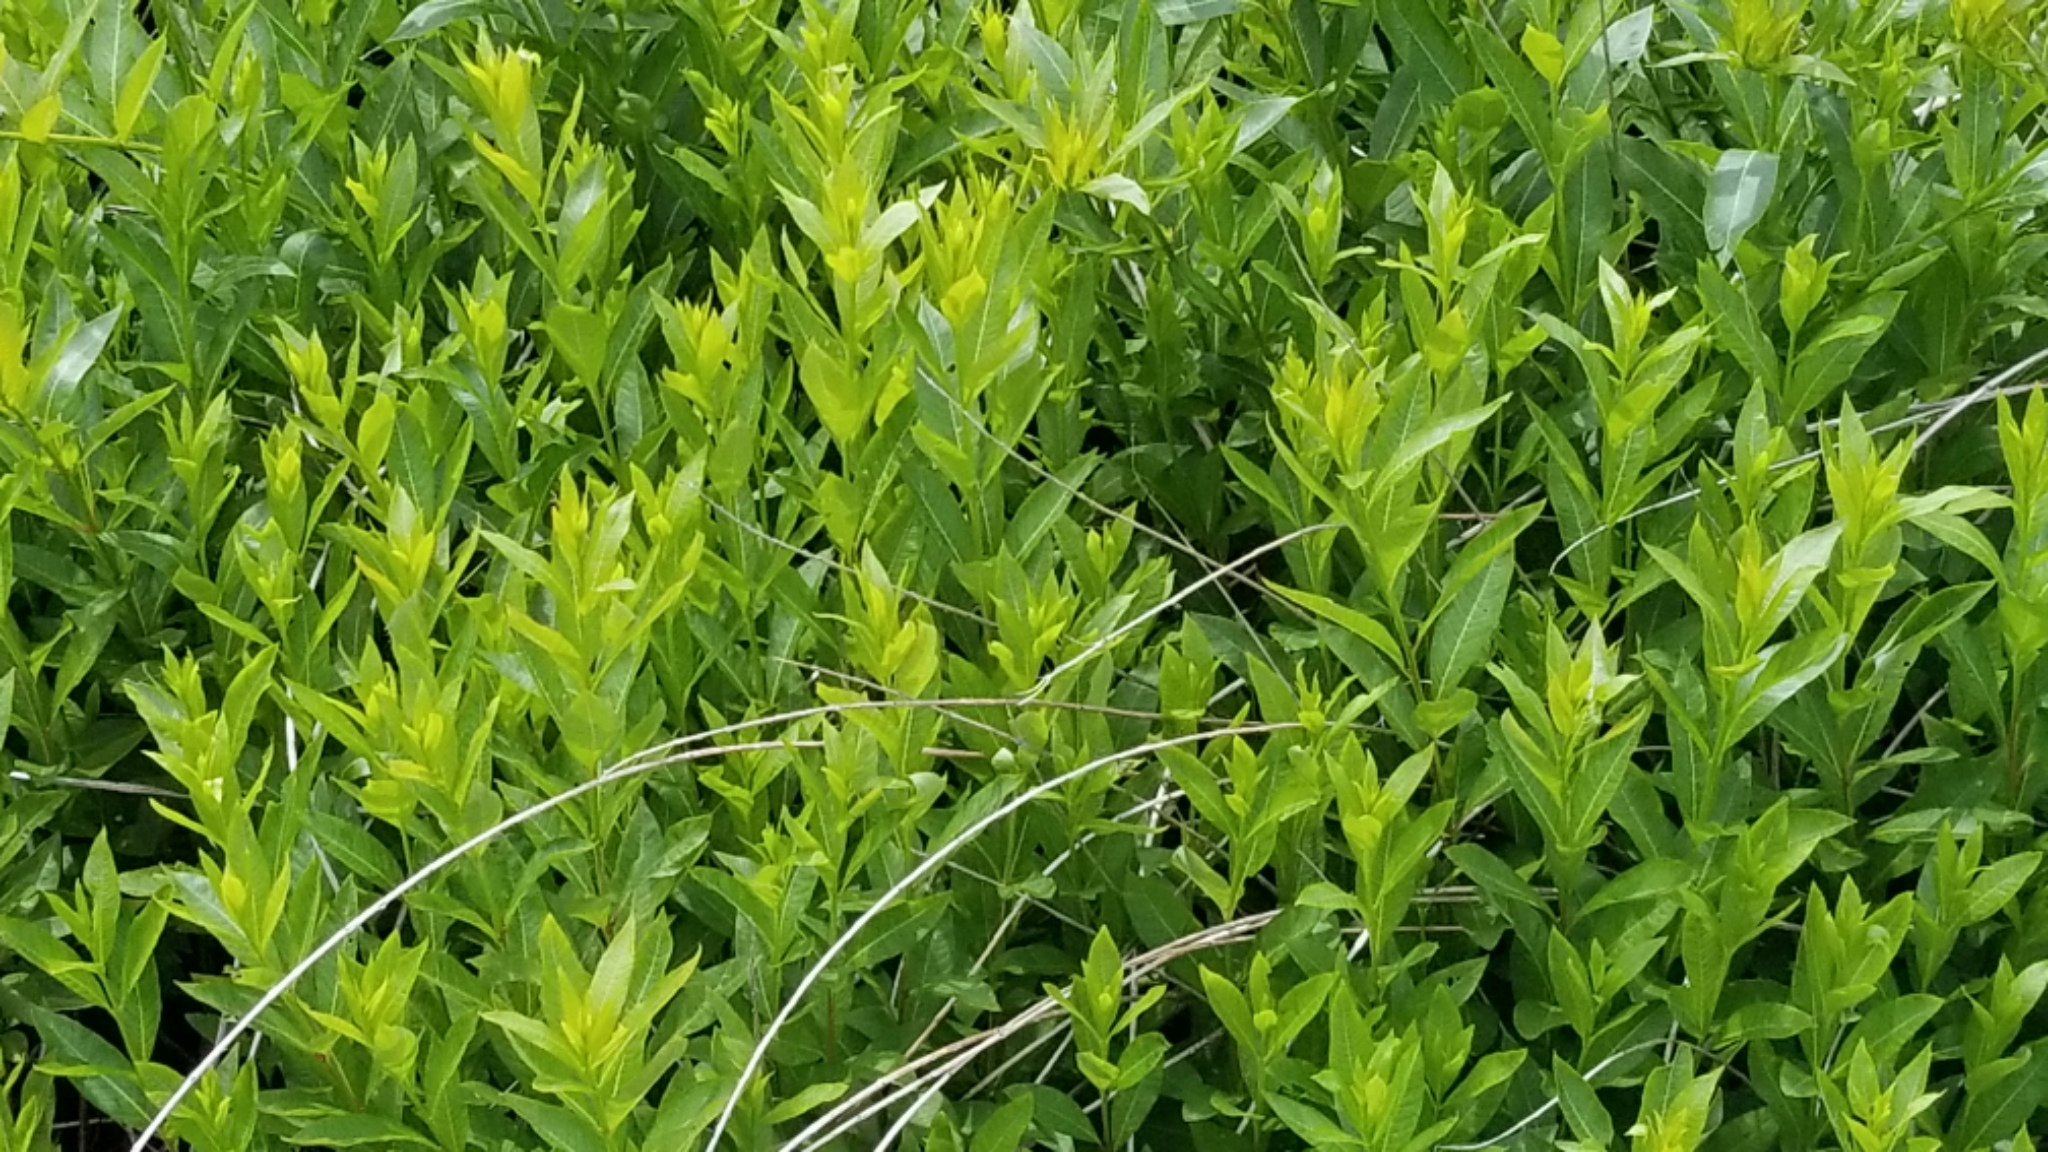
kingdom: Plantae
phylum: Tracheophyta
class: Magnoliopsida
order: Myrtales
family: Lythraceae
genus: Decodon
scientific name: Decodon verticillatus
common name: Hairy swamp loosestrife
